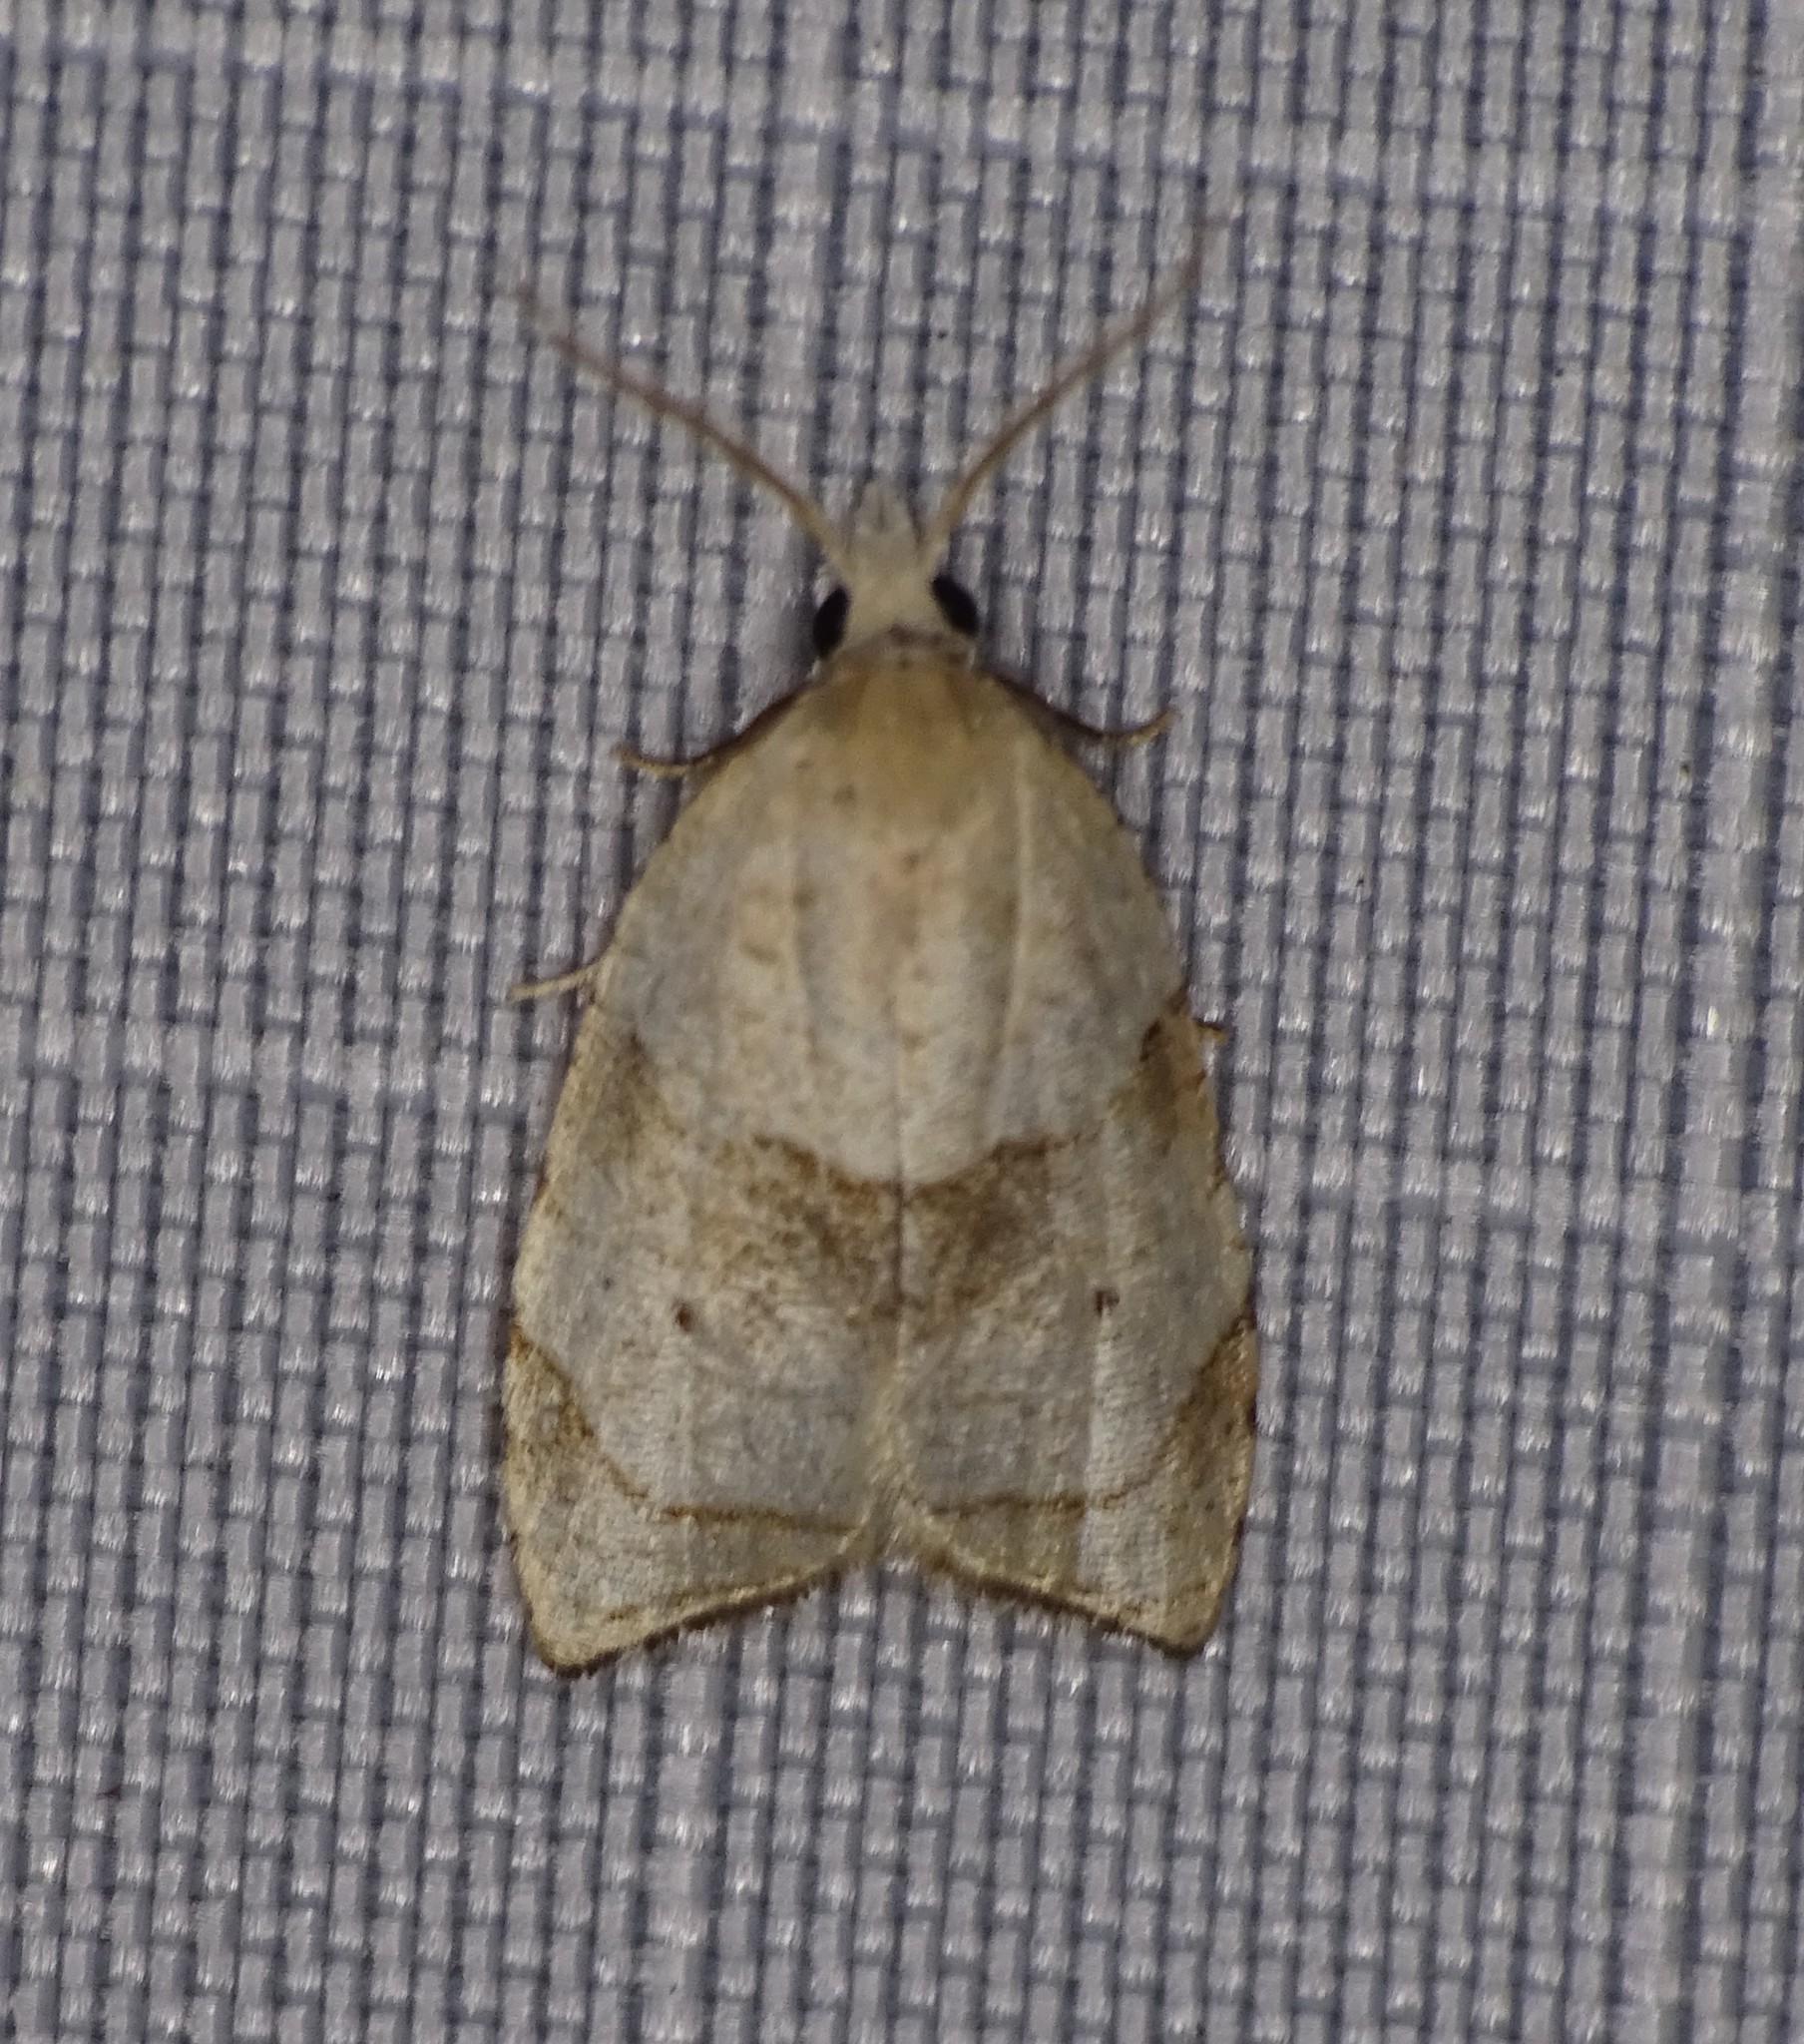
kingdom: Animalia
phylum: Arthropoda
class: Insecta
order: Lepidoptera
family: Tortricidae
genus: Coelostathma
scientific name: Coelostathma discopunctana
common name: Batman moth
